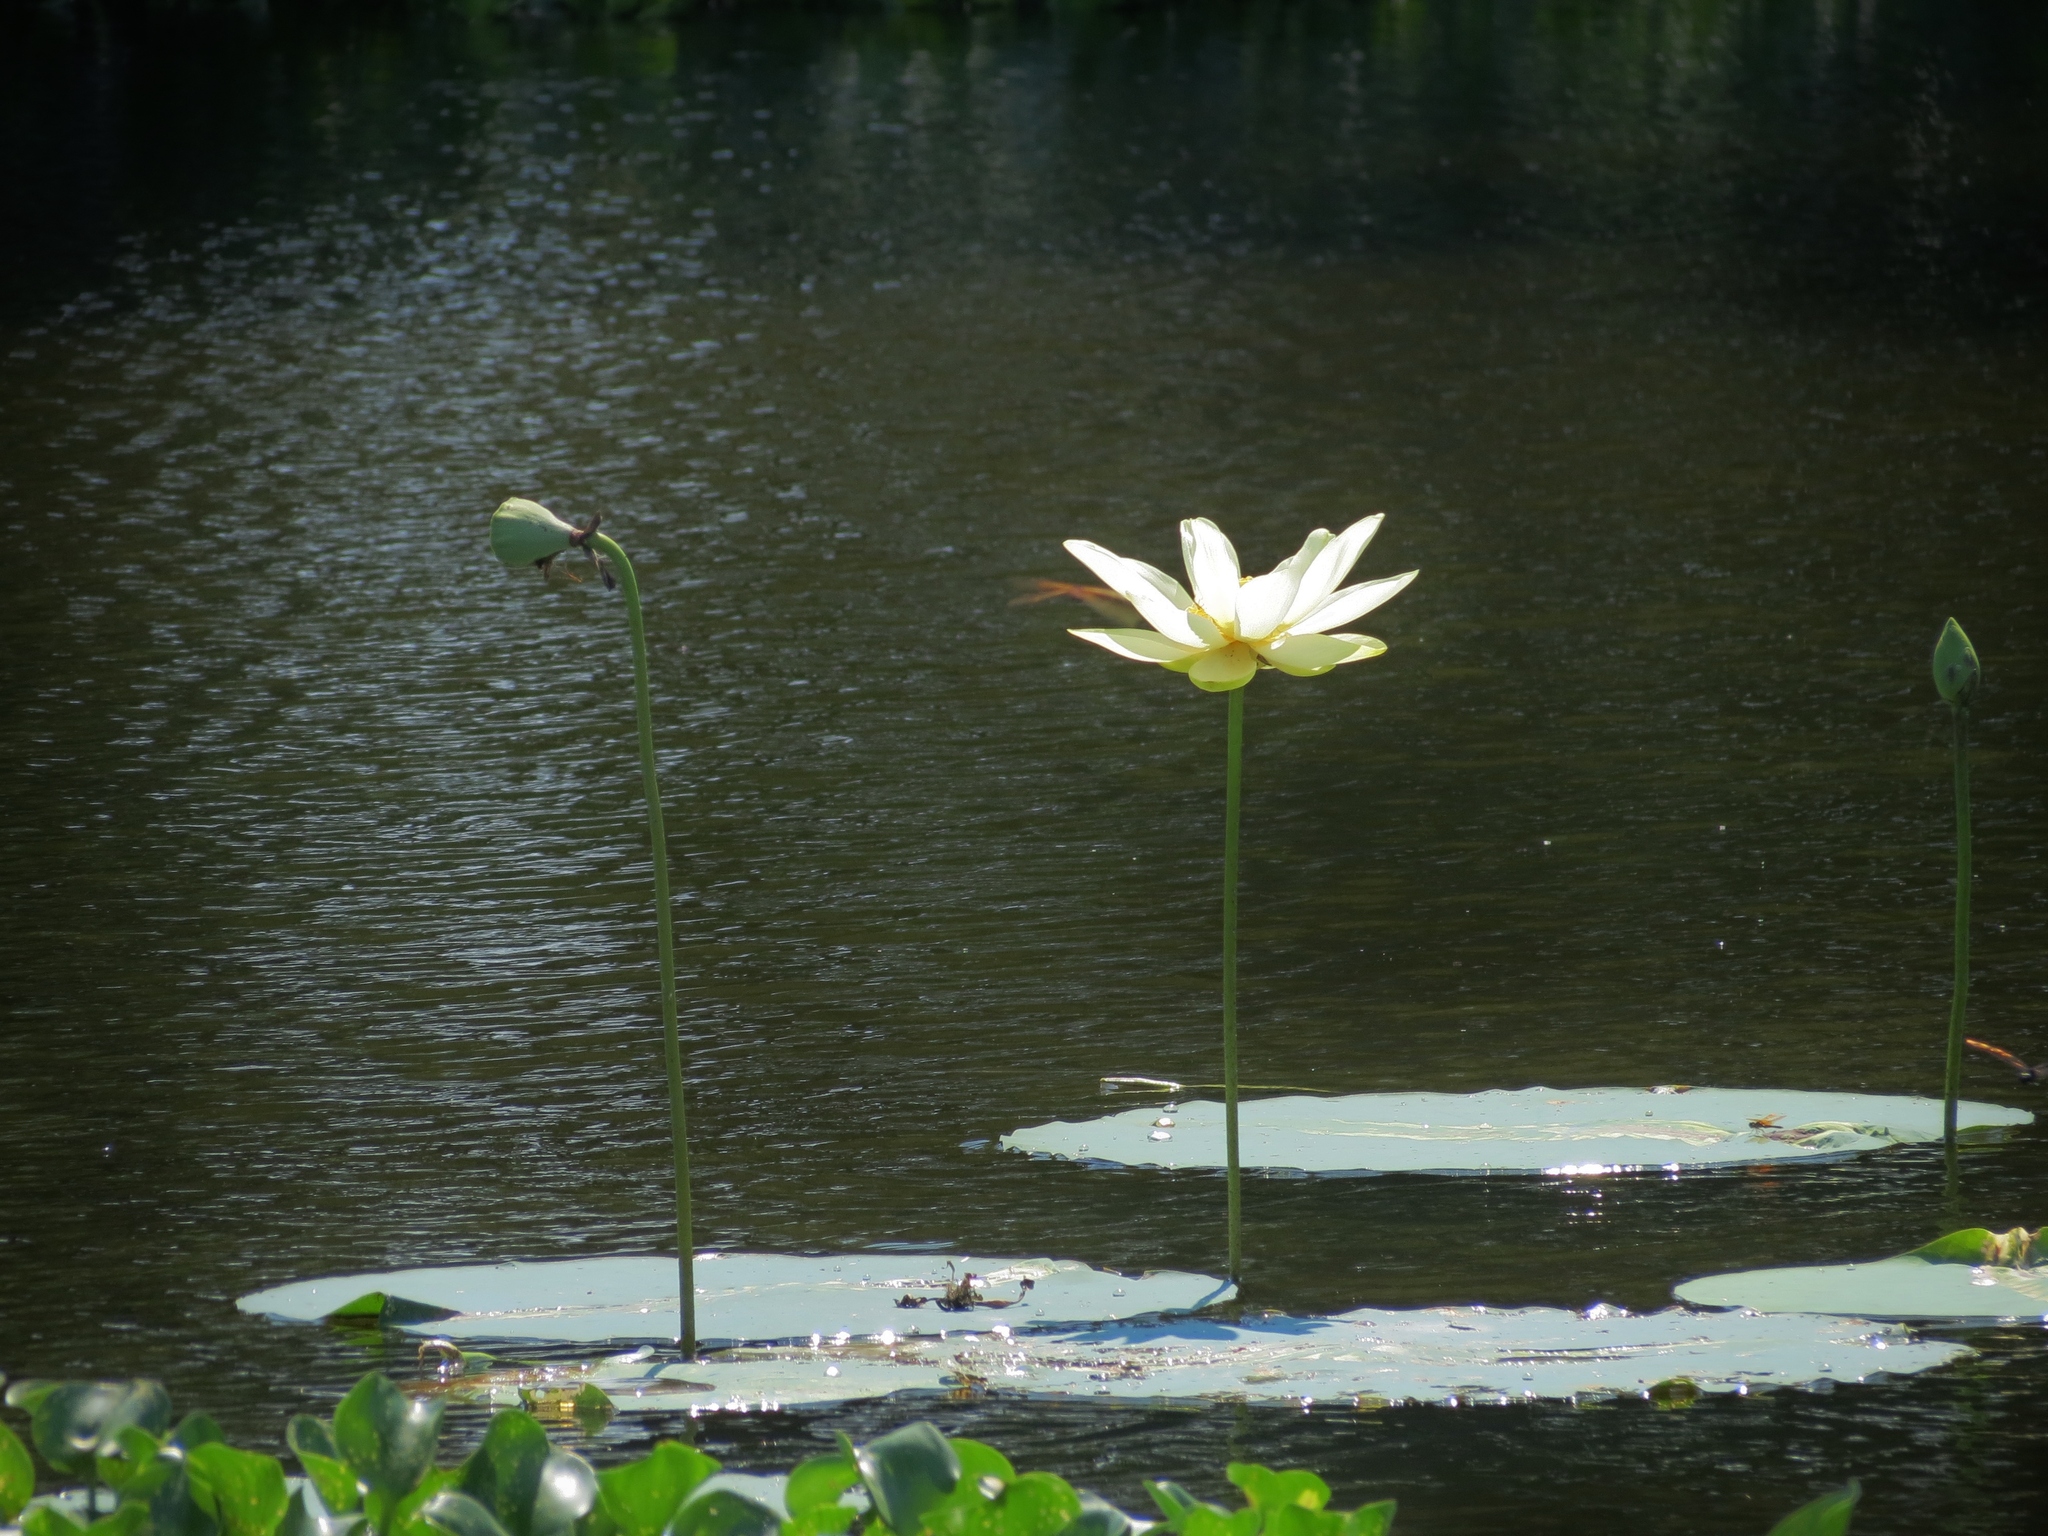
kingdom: Plantae
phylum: Tracheophyta
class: Magnoliopsida
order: Proteales
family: Nelumbonaceae
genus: Nelumbo
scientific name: Nelumbo lutea
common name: American lotus
